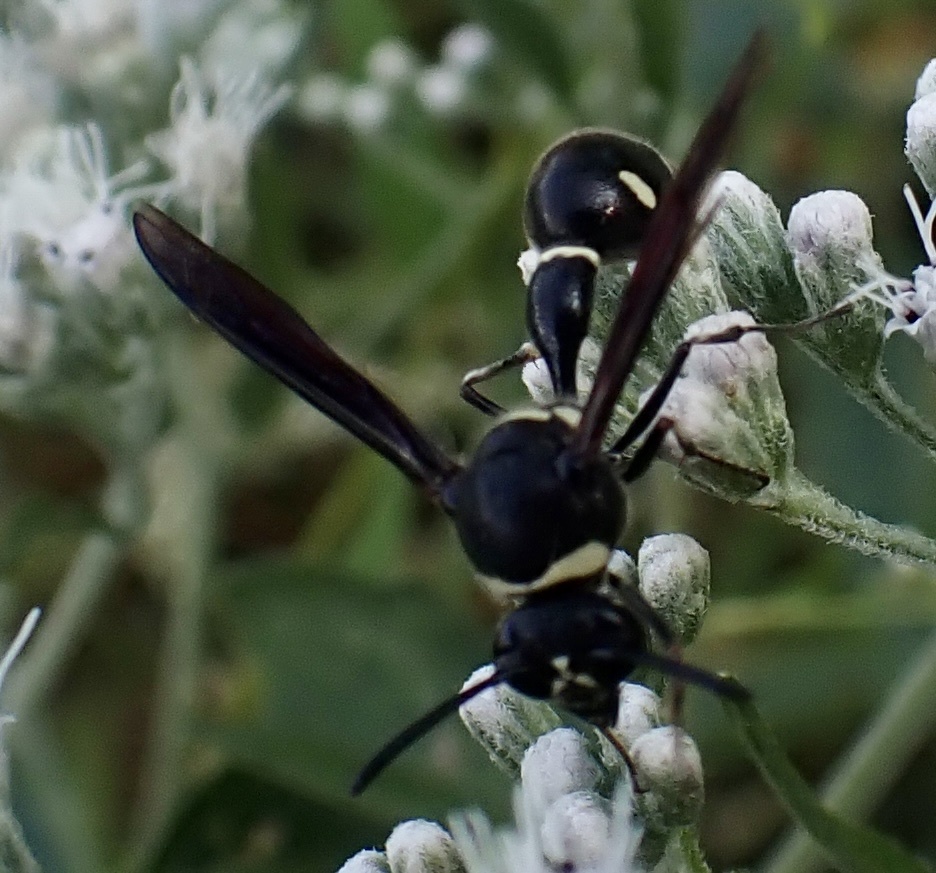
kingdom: Animalia
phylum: Arthropoda
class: Insecta
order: Hymenoptera
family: Vespidae
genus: Eumenes
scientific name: Eumenes fraternus
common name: Fraternal potter wasp
